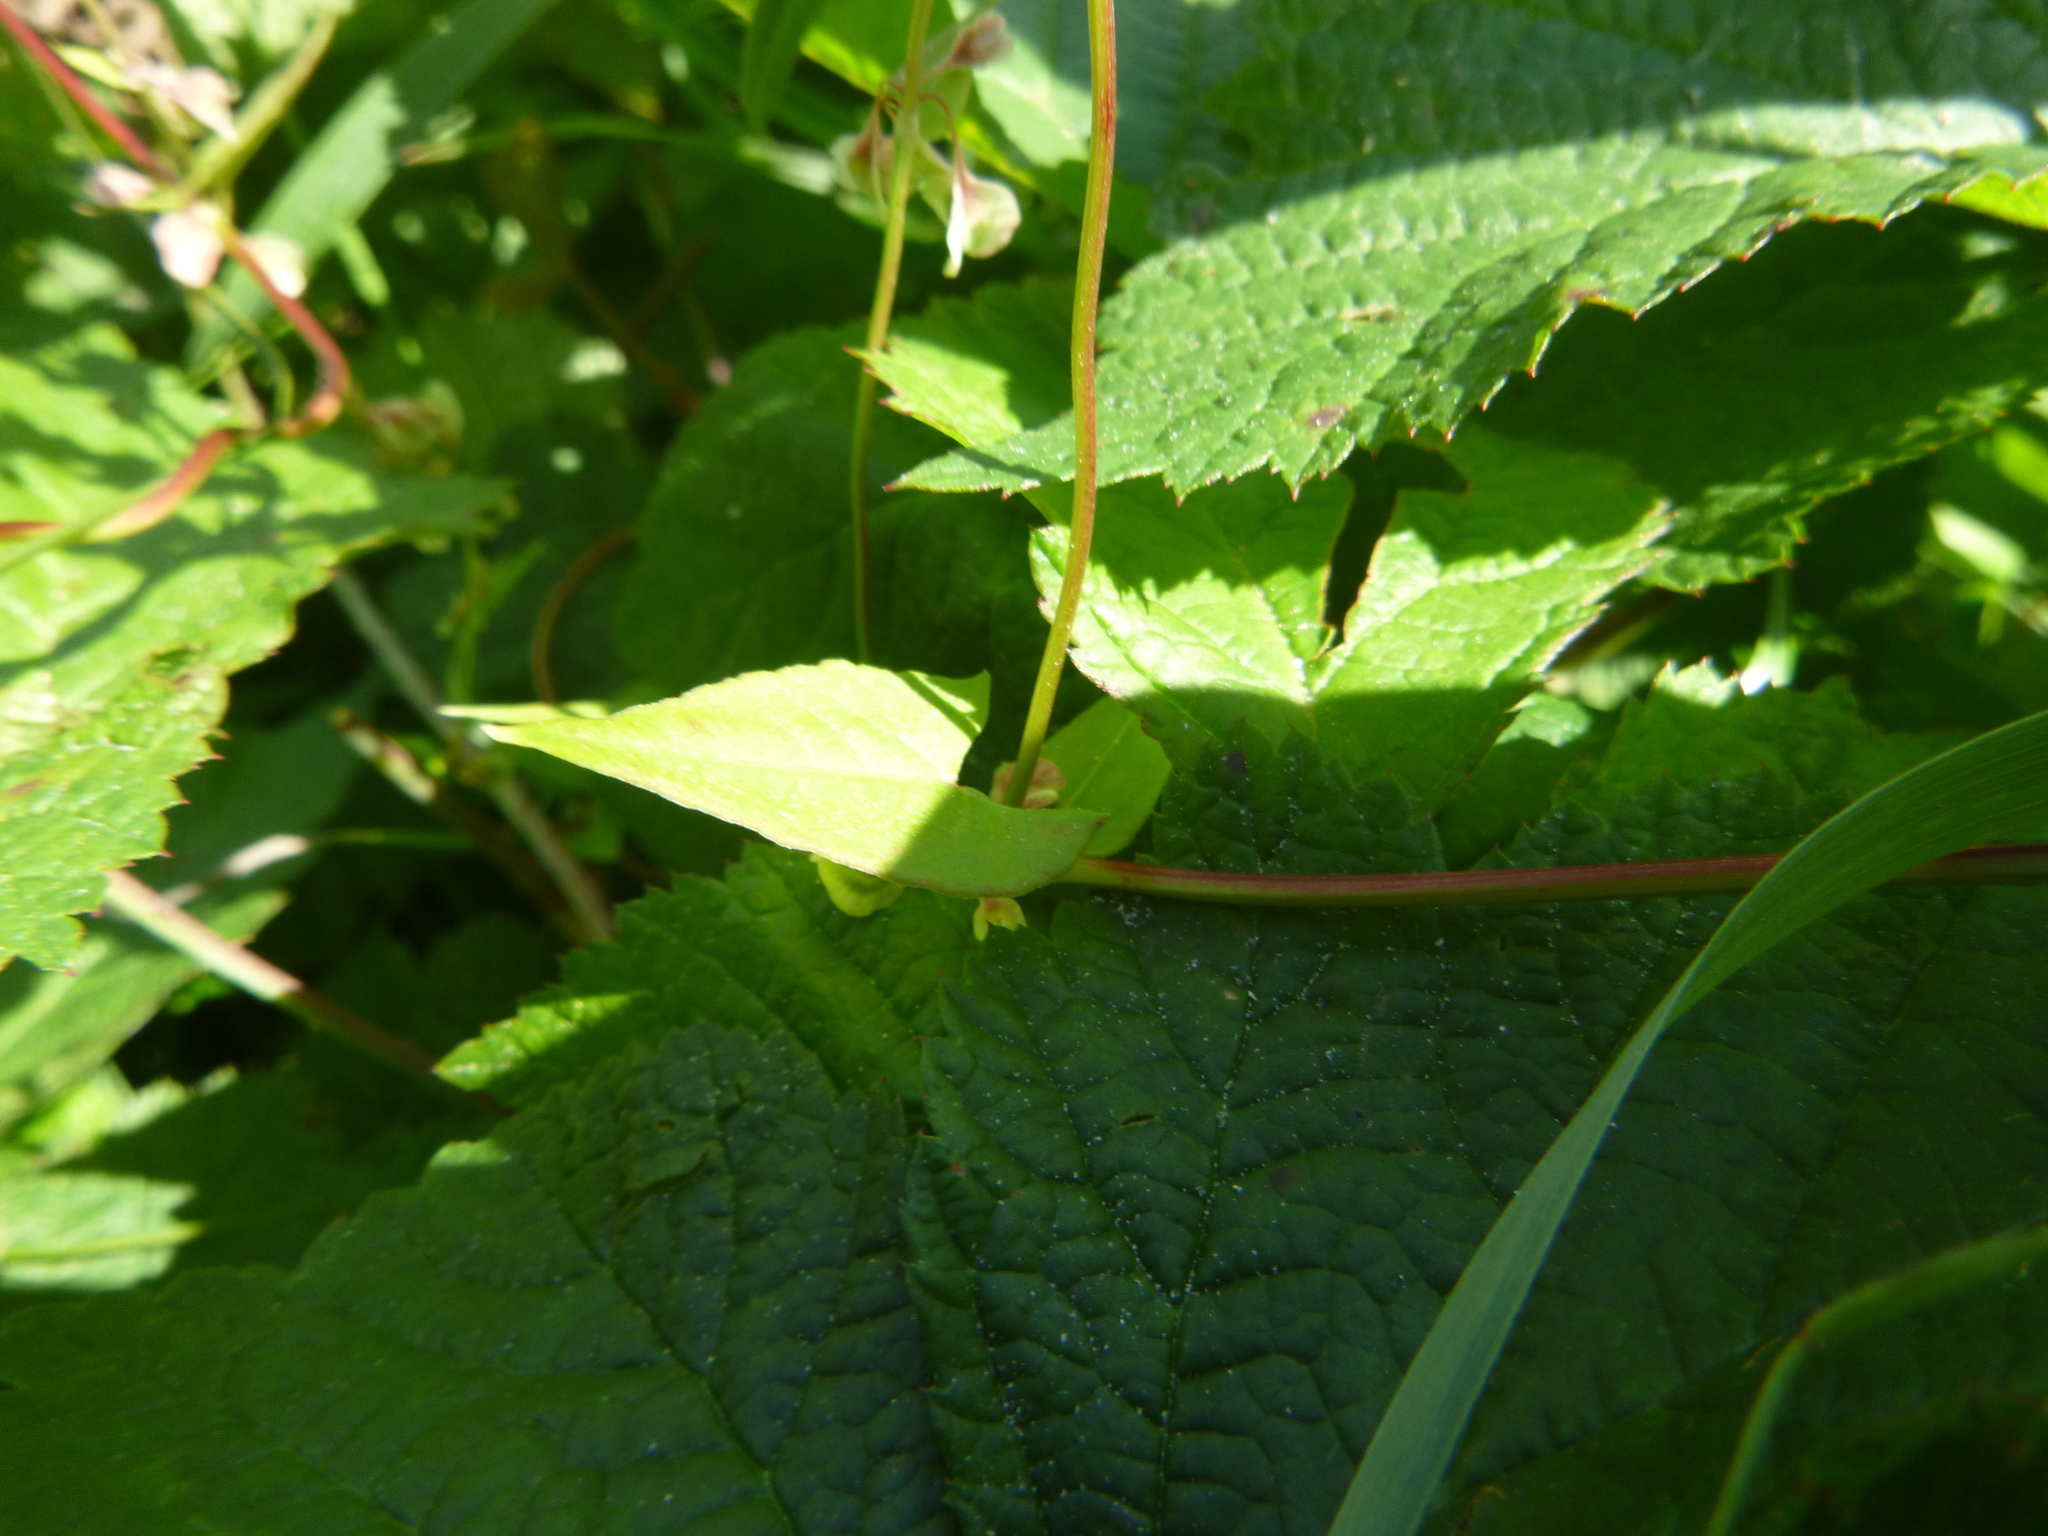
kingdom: Plantae
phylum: Tracheophyta
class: Magnoliopsida
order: Caryophyllales
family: Polygonaceae
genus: Fallopia
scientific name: Fallopia dumetorum
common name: Copse-bindweed
